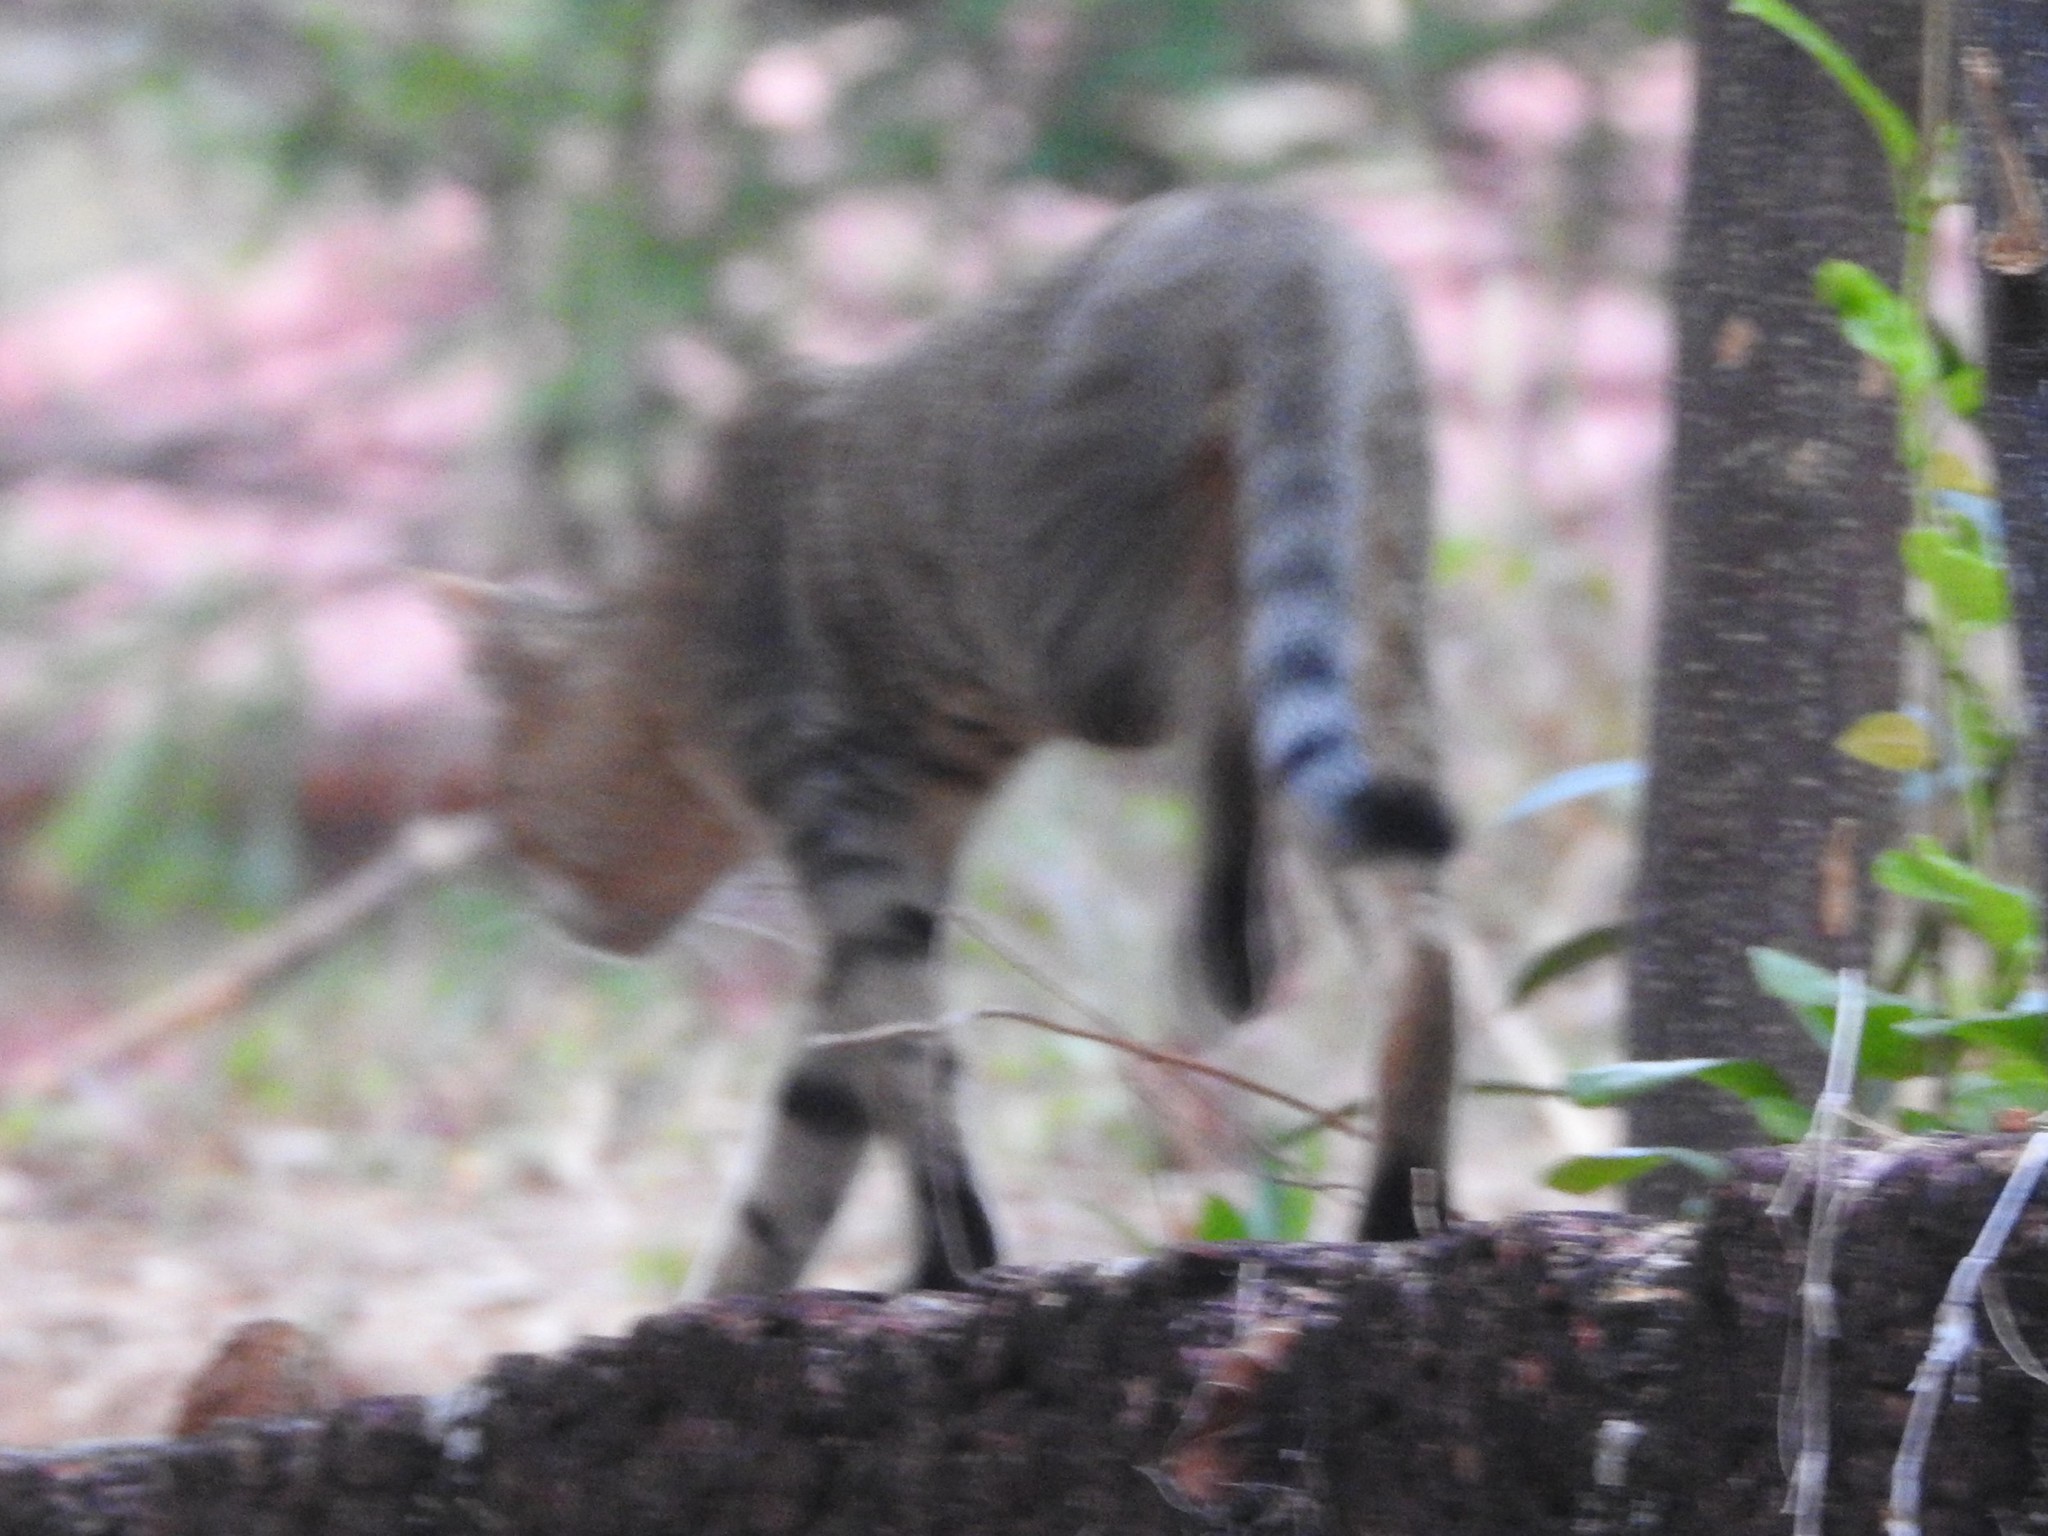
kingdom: Animalia
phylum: Chordata
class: Mammalia
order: Carnivora
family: Felidae
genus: Felis
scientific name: Felis catus
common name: Domestic cat
